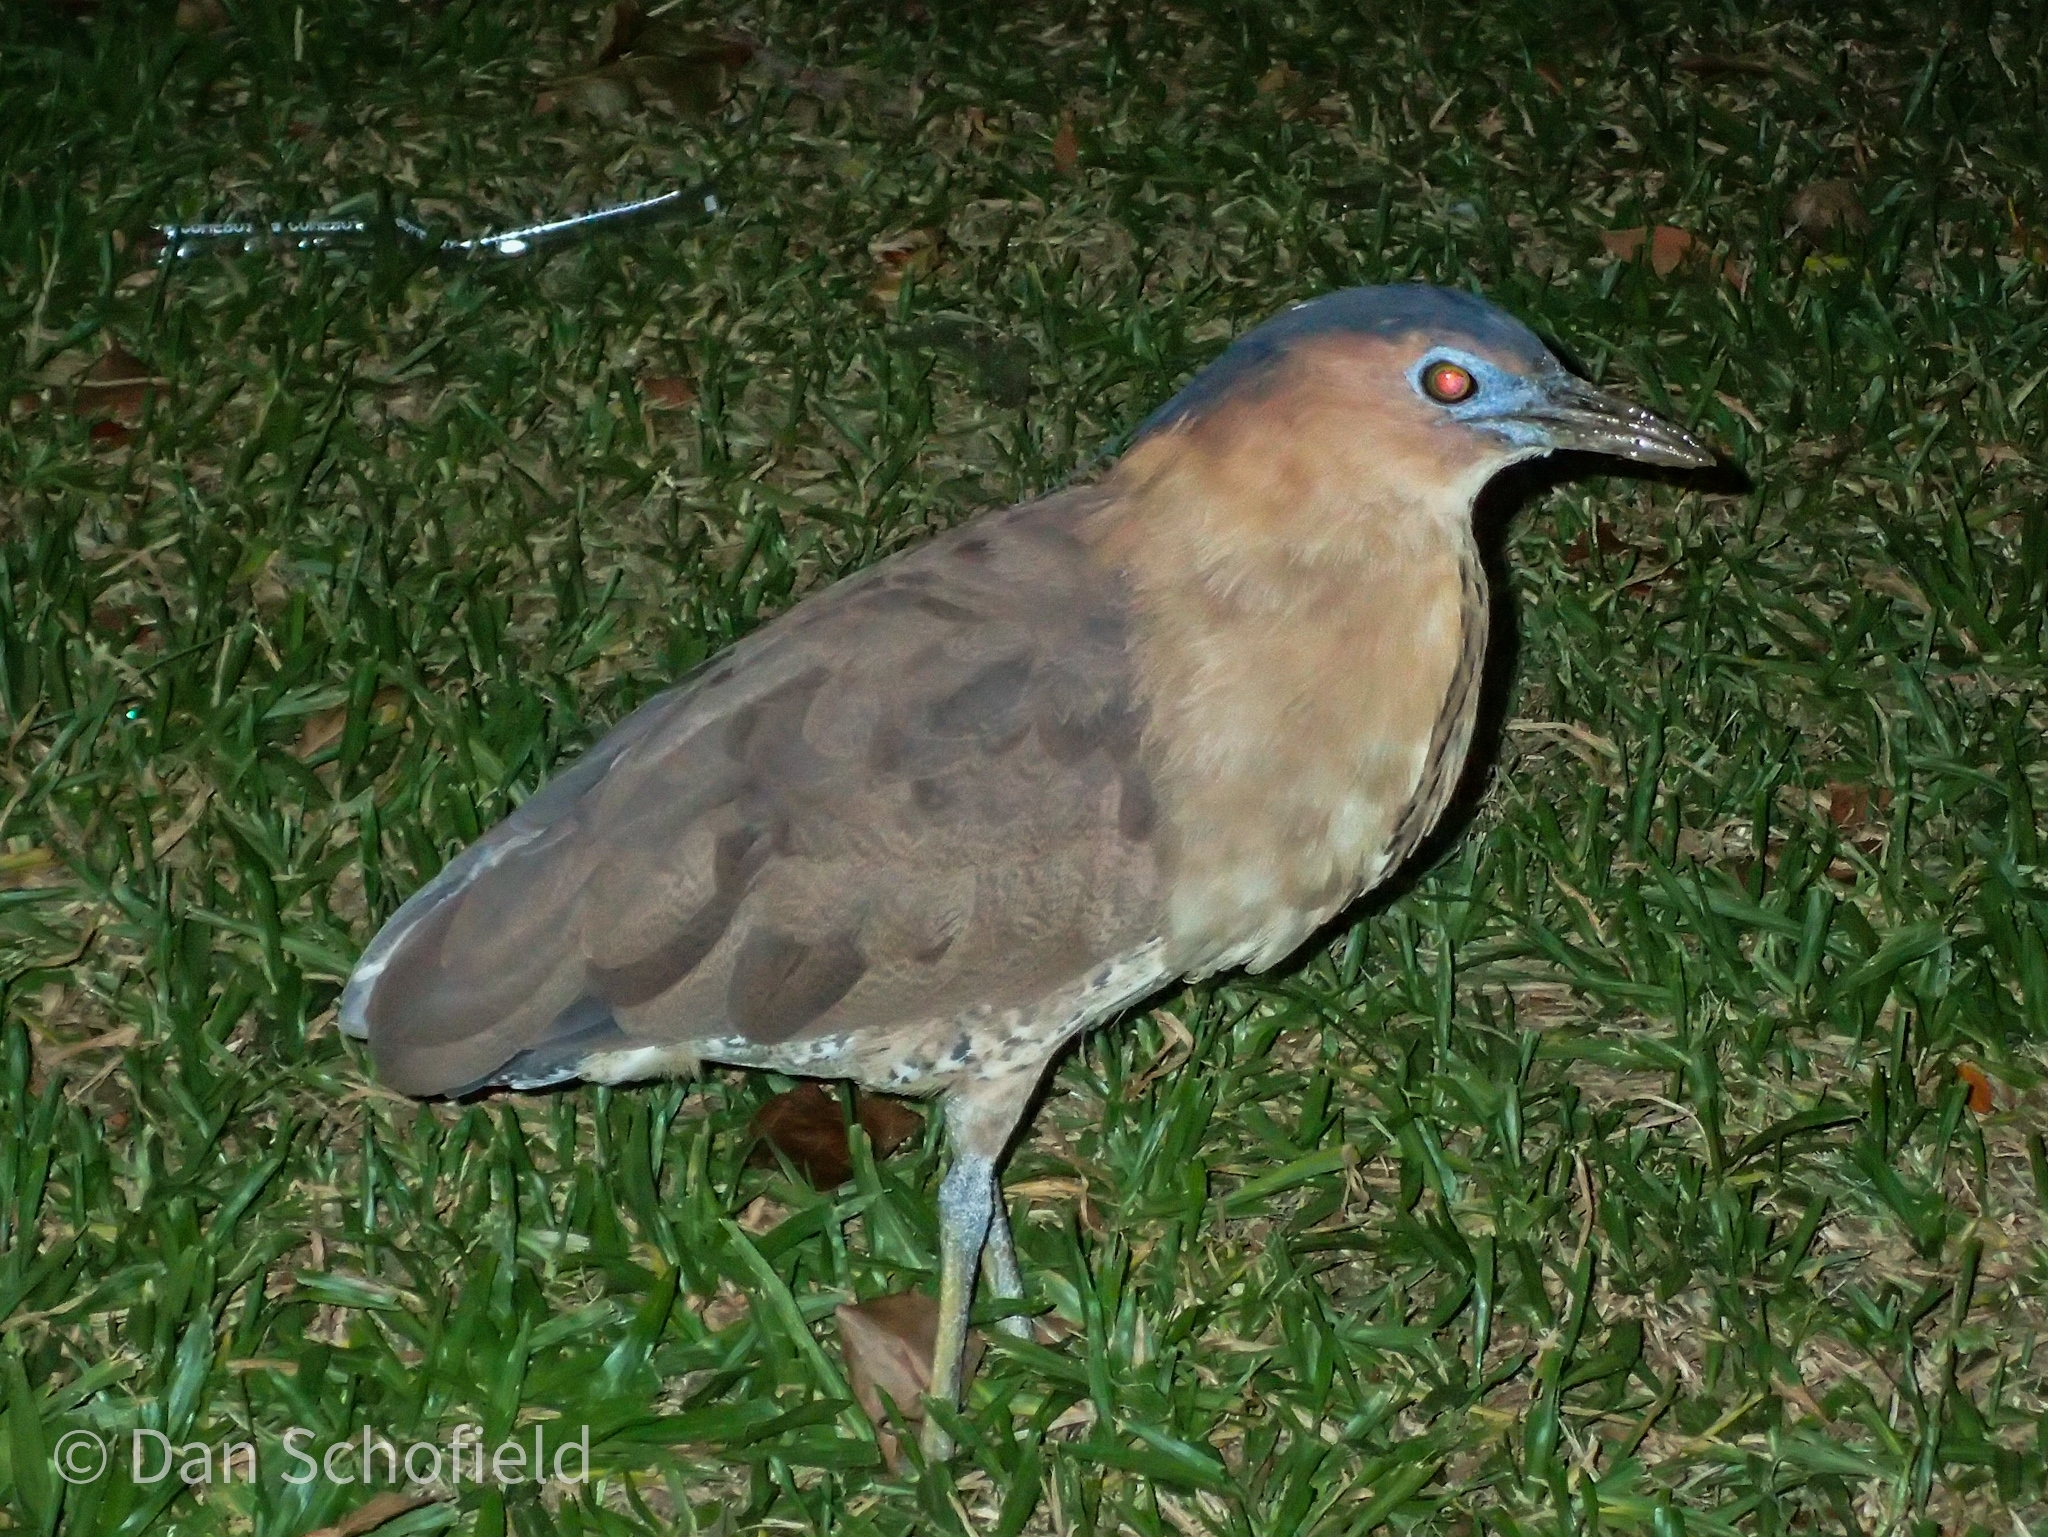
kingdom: Animalia
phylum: Chordata
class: Aves
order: Pelecaniformes
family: Ardeidae
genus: Gorsachius
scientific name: Gorsachius melanolophus
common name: Malayan night heron
